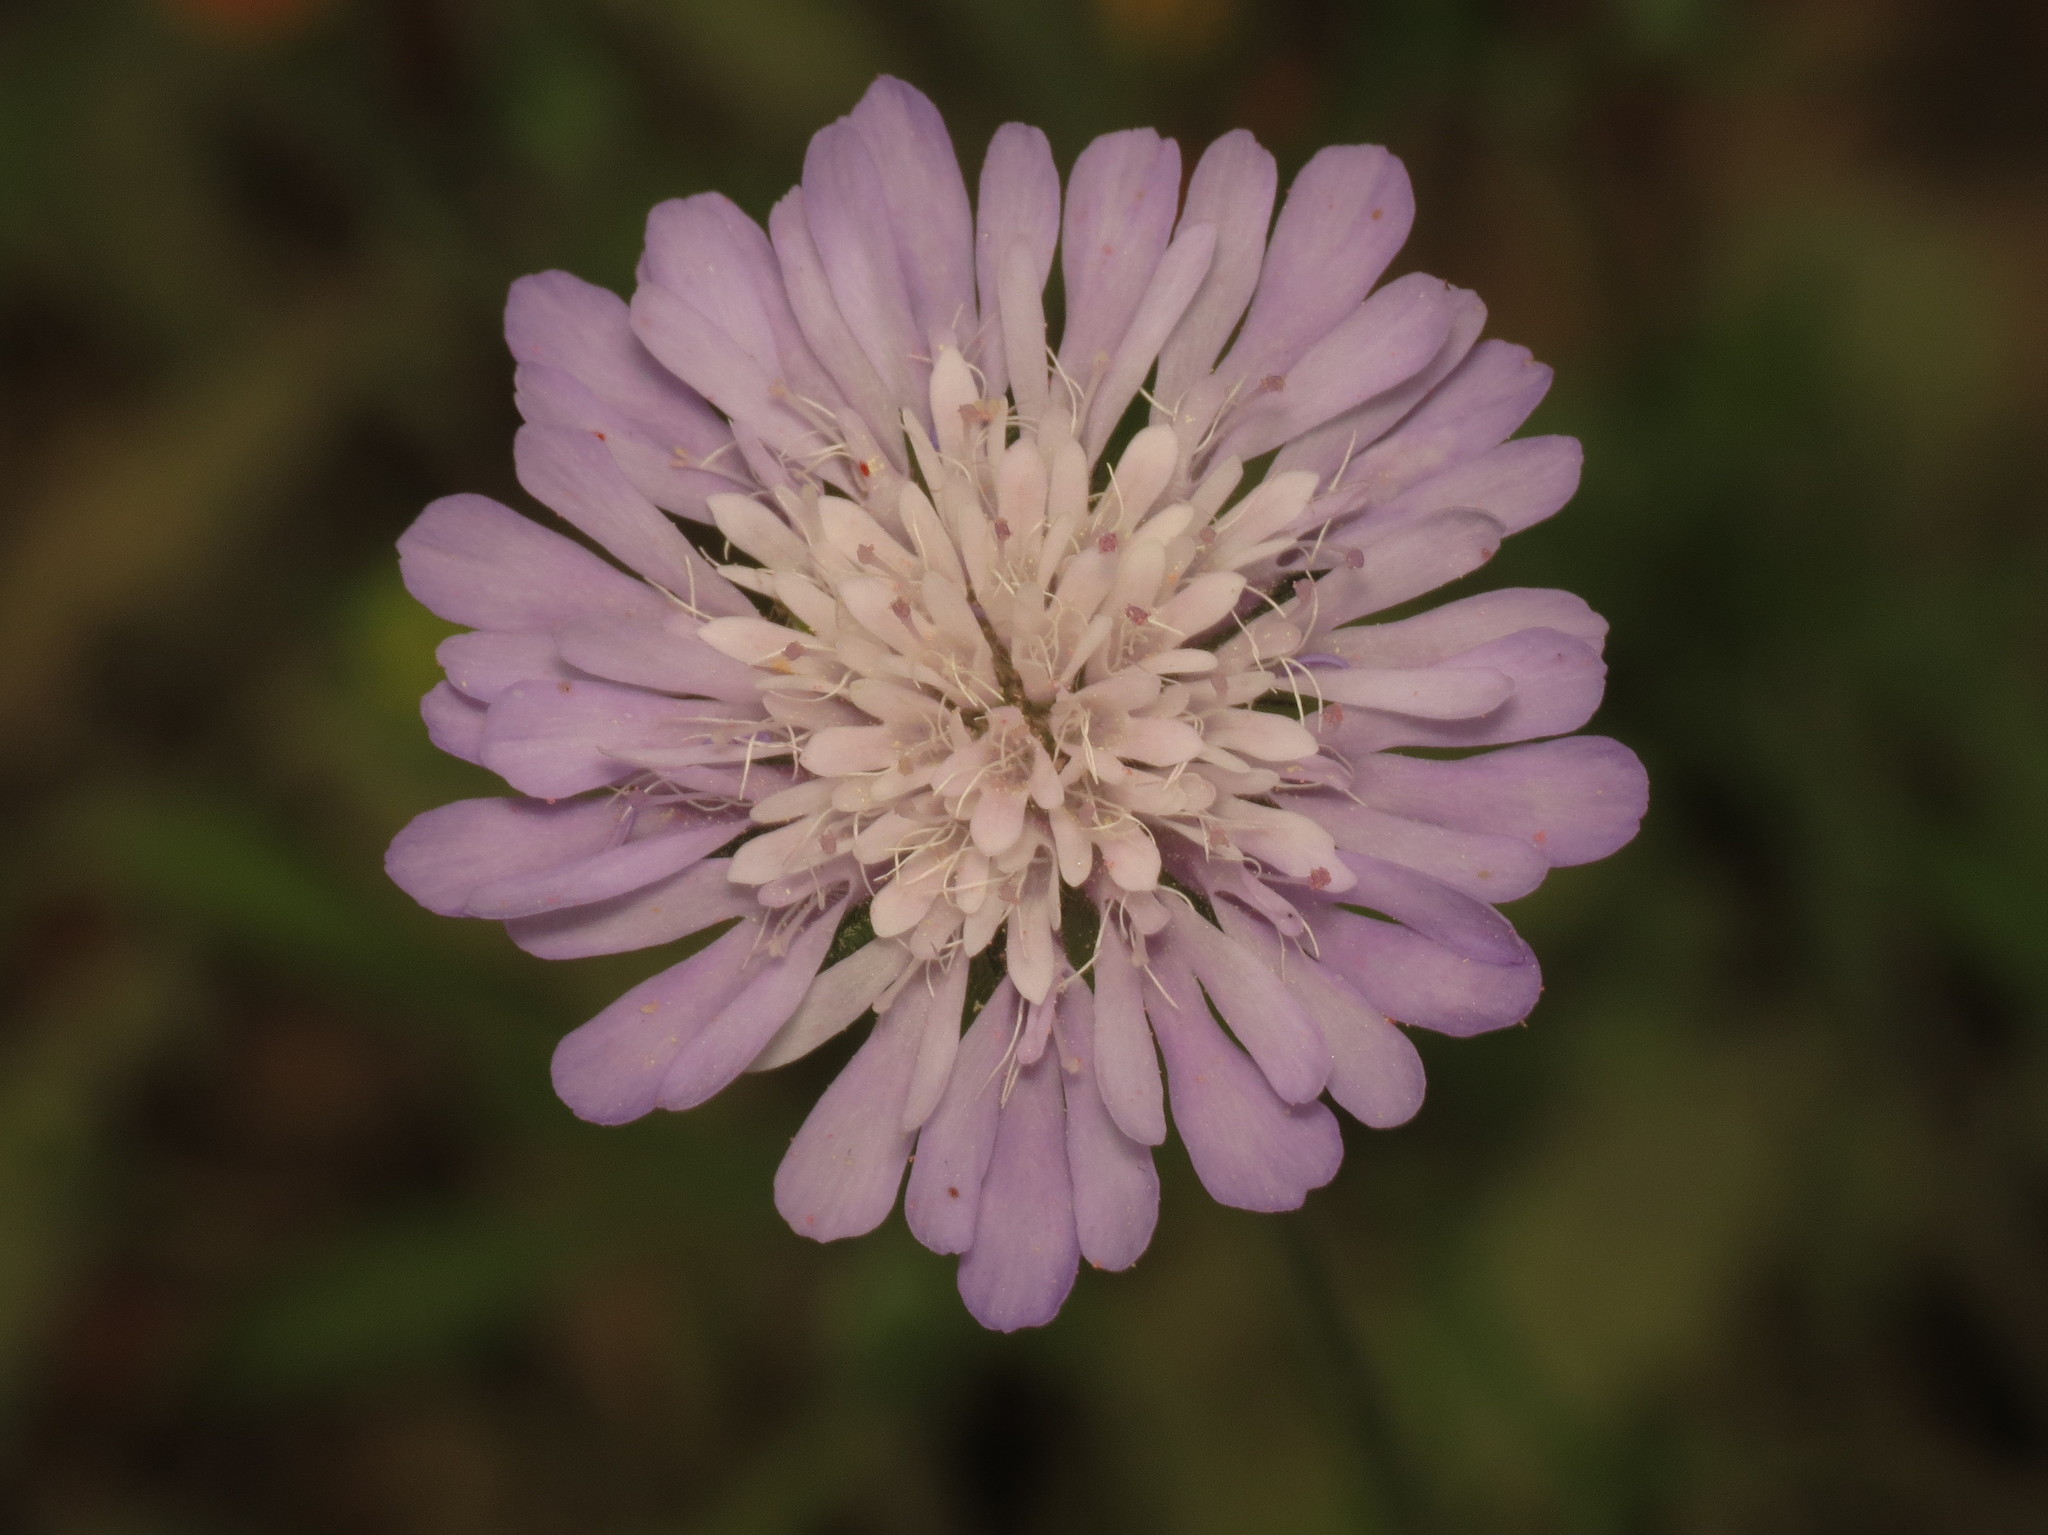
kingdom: Plantae
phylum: Tracheophyta
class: Magnoliopsida
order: Dipsacales
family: Caprifoliaceae
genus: Knautia
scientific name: Knautia arvensis
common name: Field scabiosa
